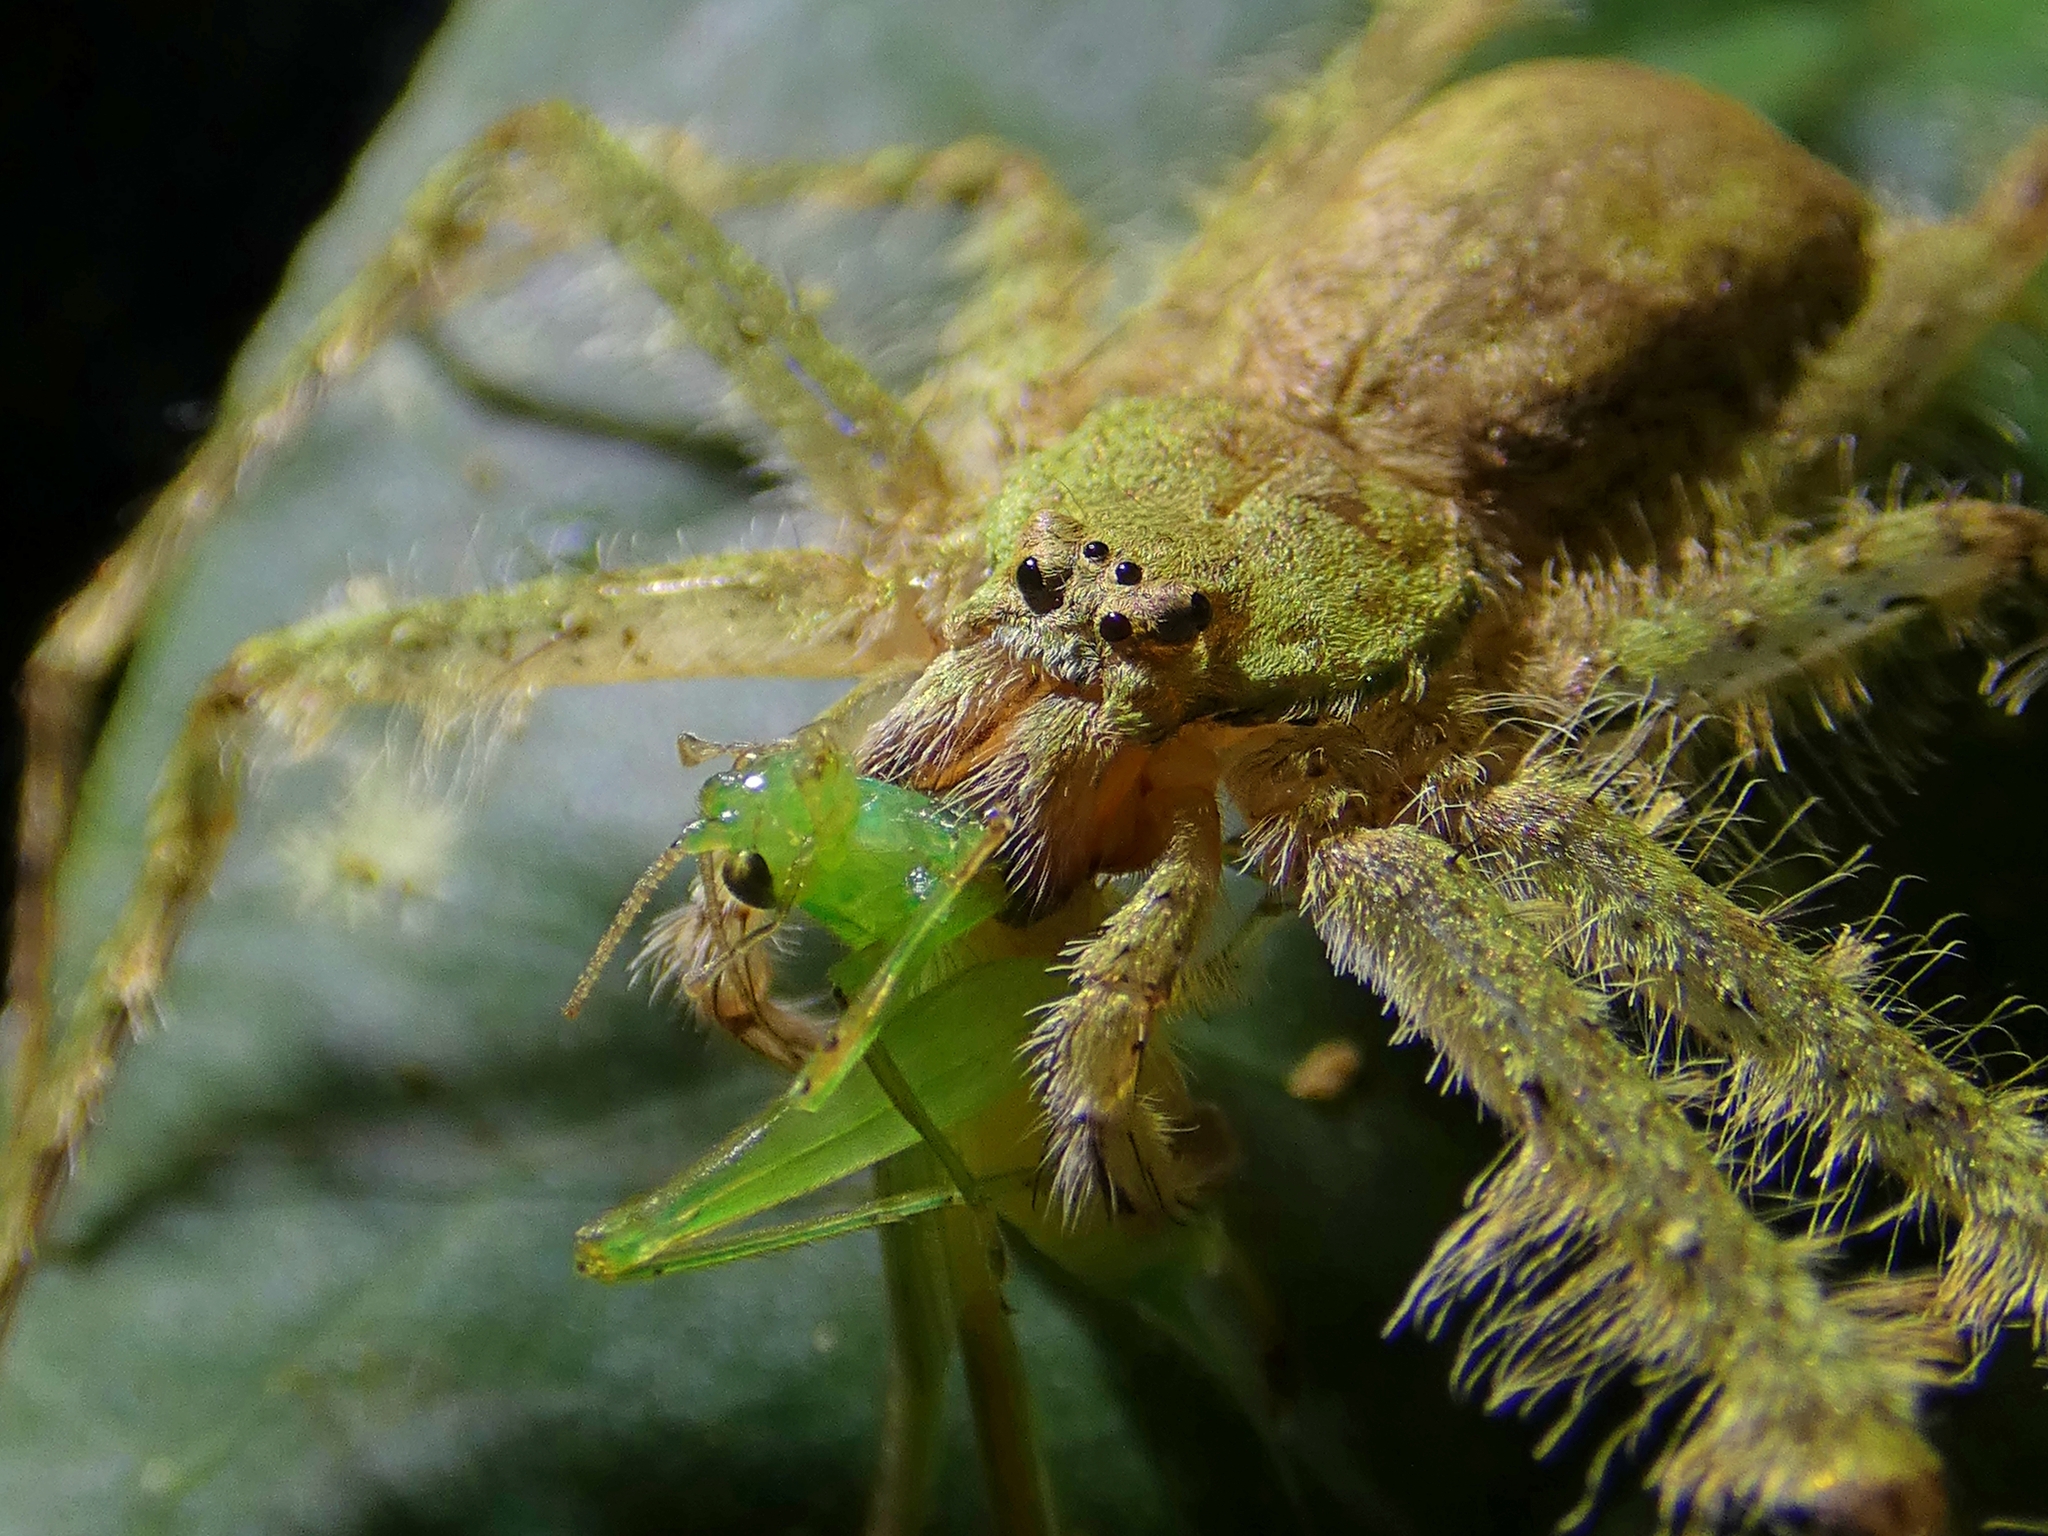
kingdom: Animalia
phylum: Arthropoda
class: Arachnida
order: Araneae
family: Sparassidae
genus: Pandercetes
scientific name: Pandercetes gracilis
